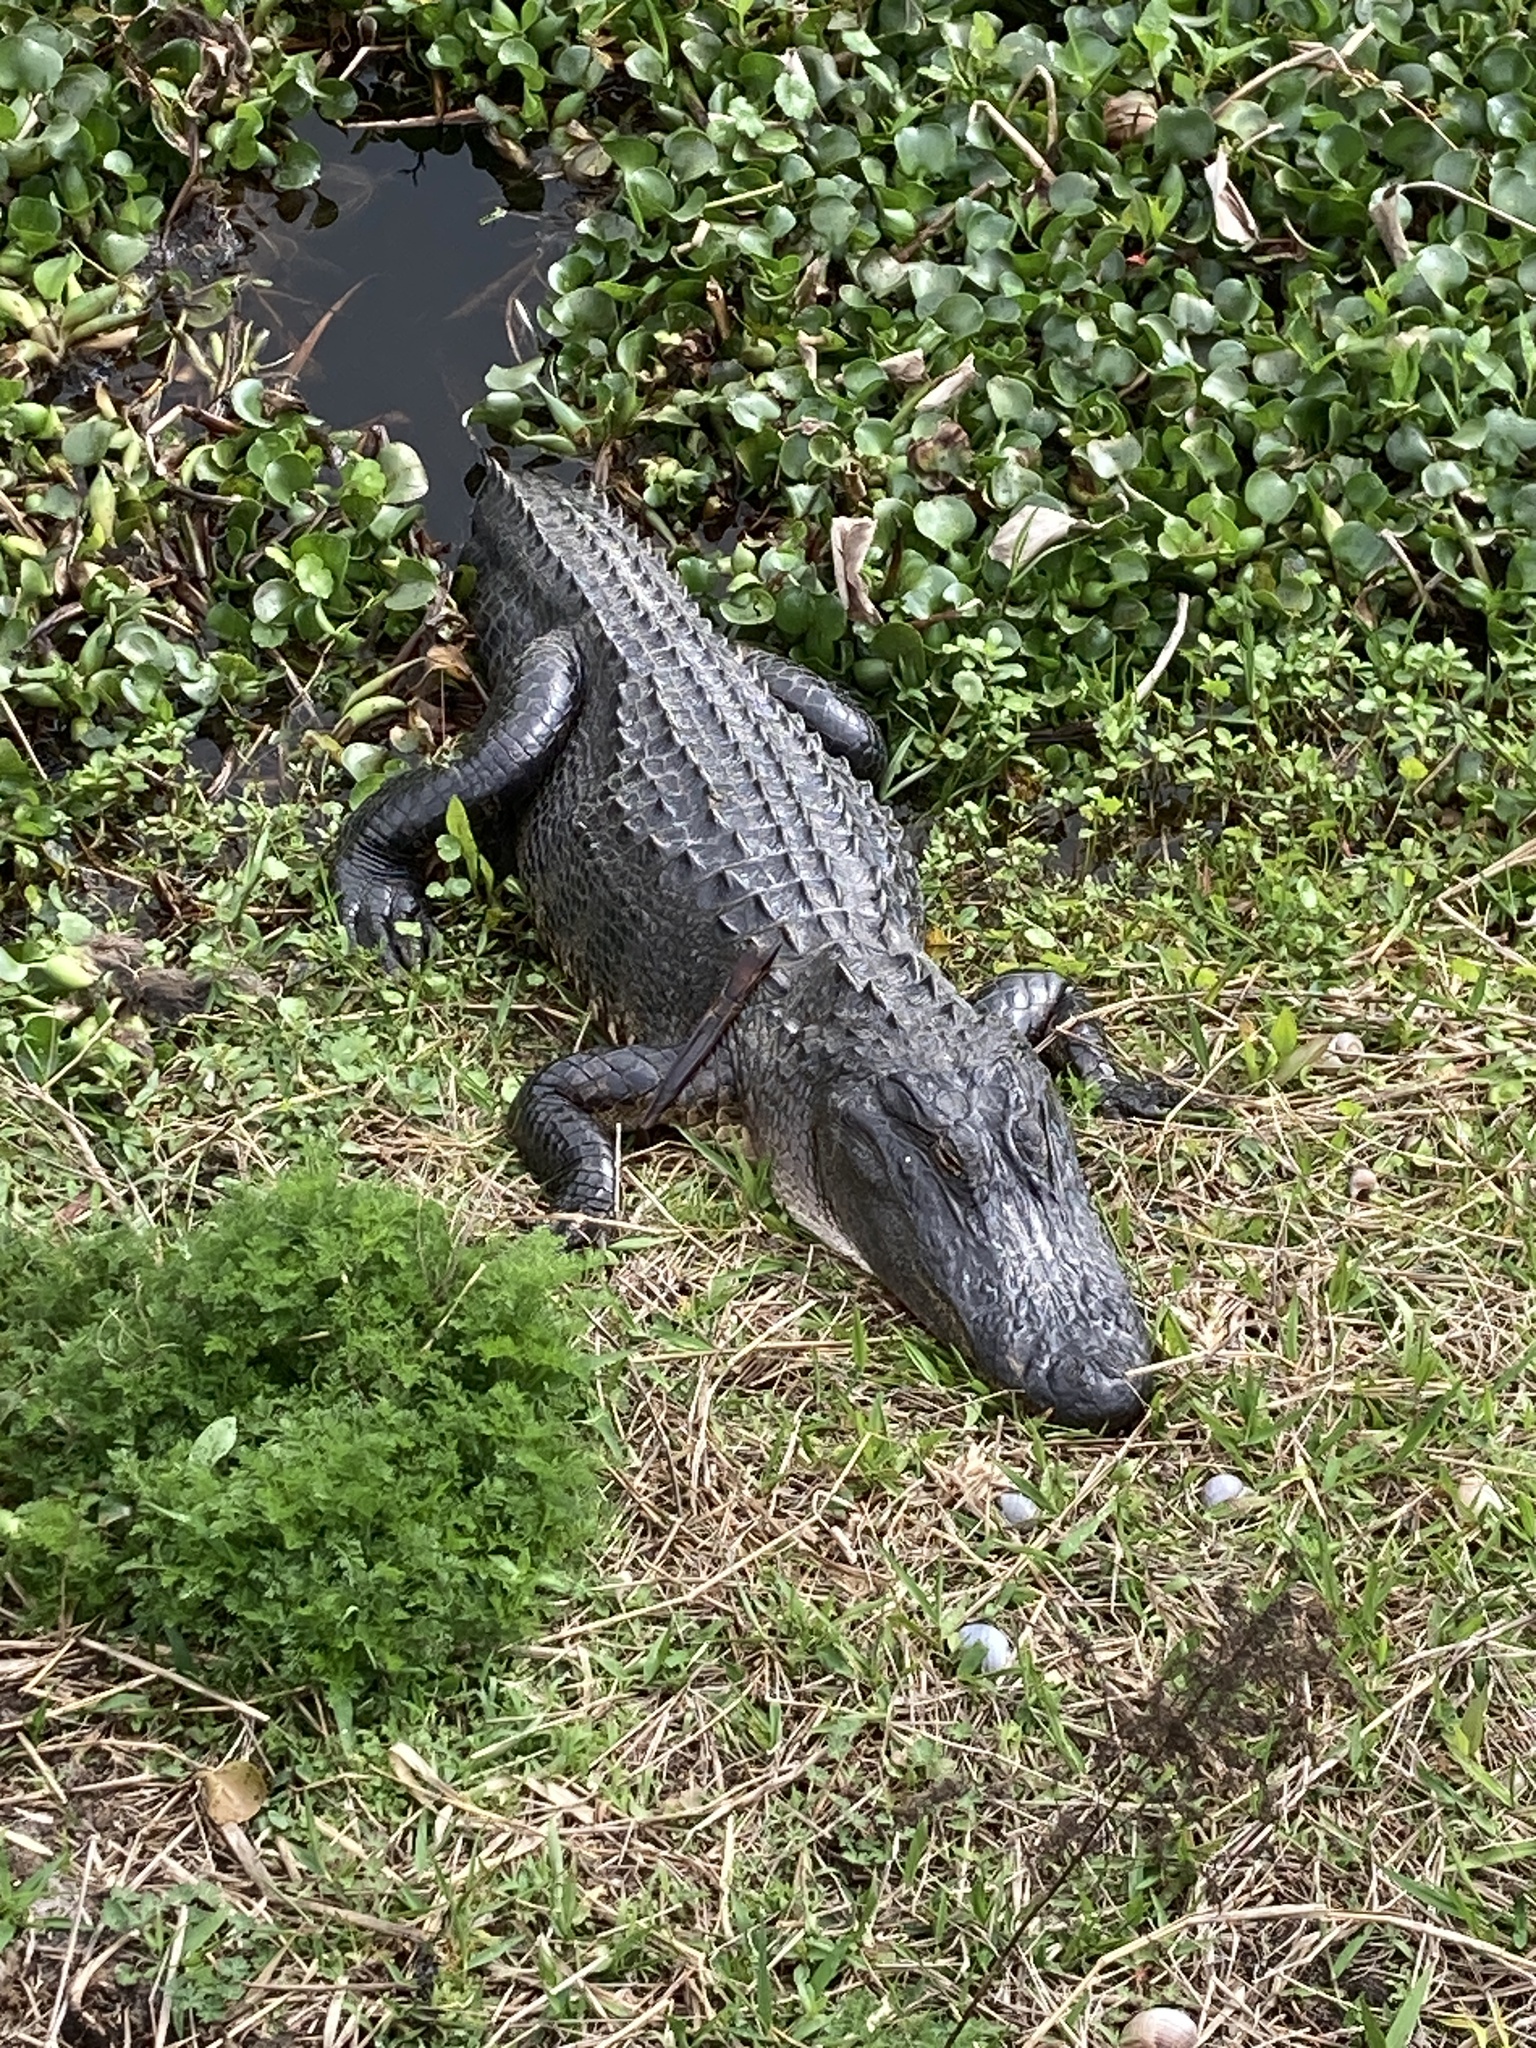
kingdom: Animalia
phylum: Chordata
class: Crocodylia
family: Alligatoridae
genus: Alligator
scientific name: Alligator mississippiensis
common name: American alligator
